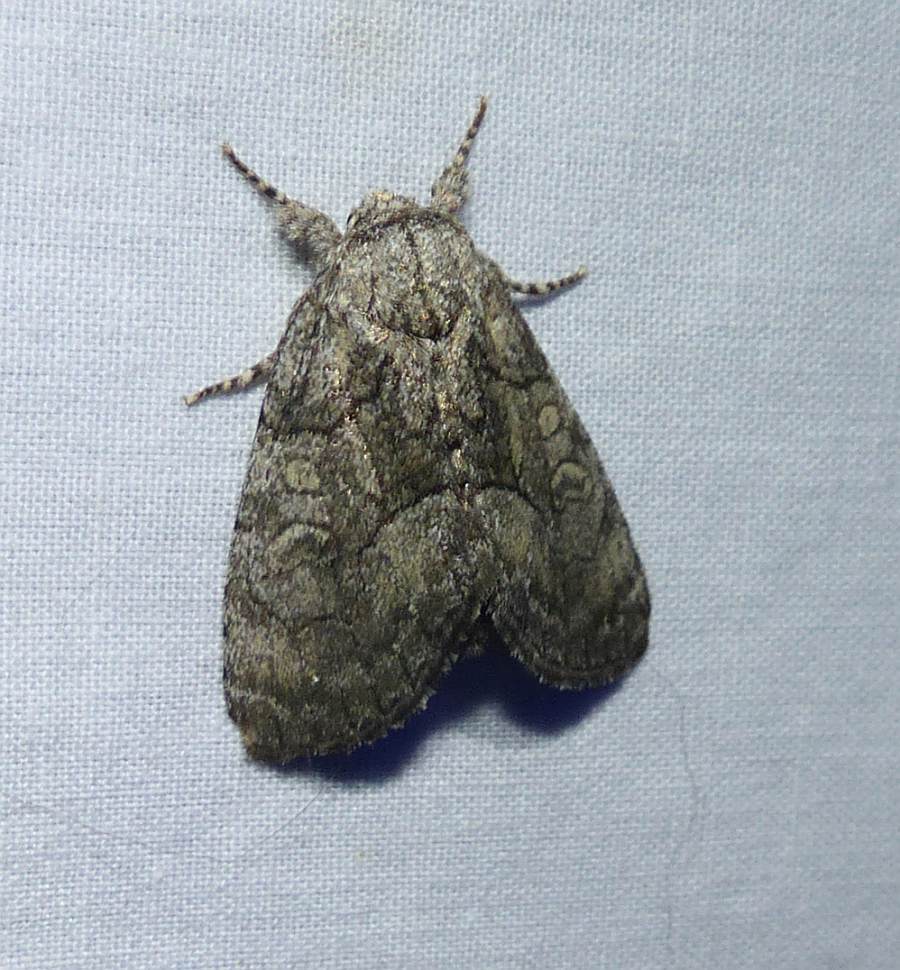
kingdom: Animalia
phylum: Arthropoda
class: Insecta
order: Lepidoptera
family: Noctuidae
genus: Raphia
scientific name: Raphia frater
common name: Brother
